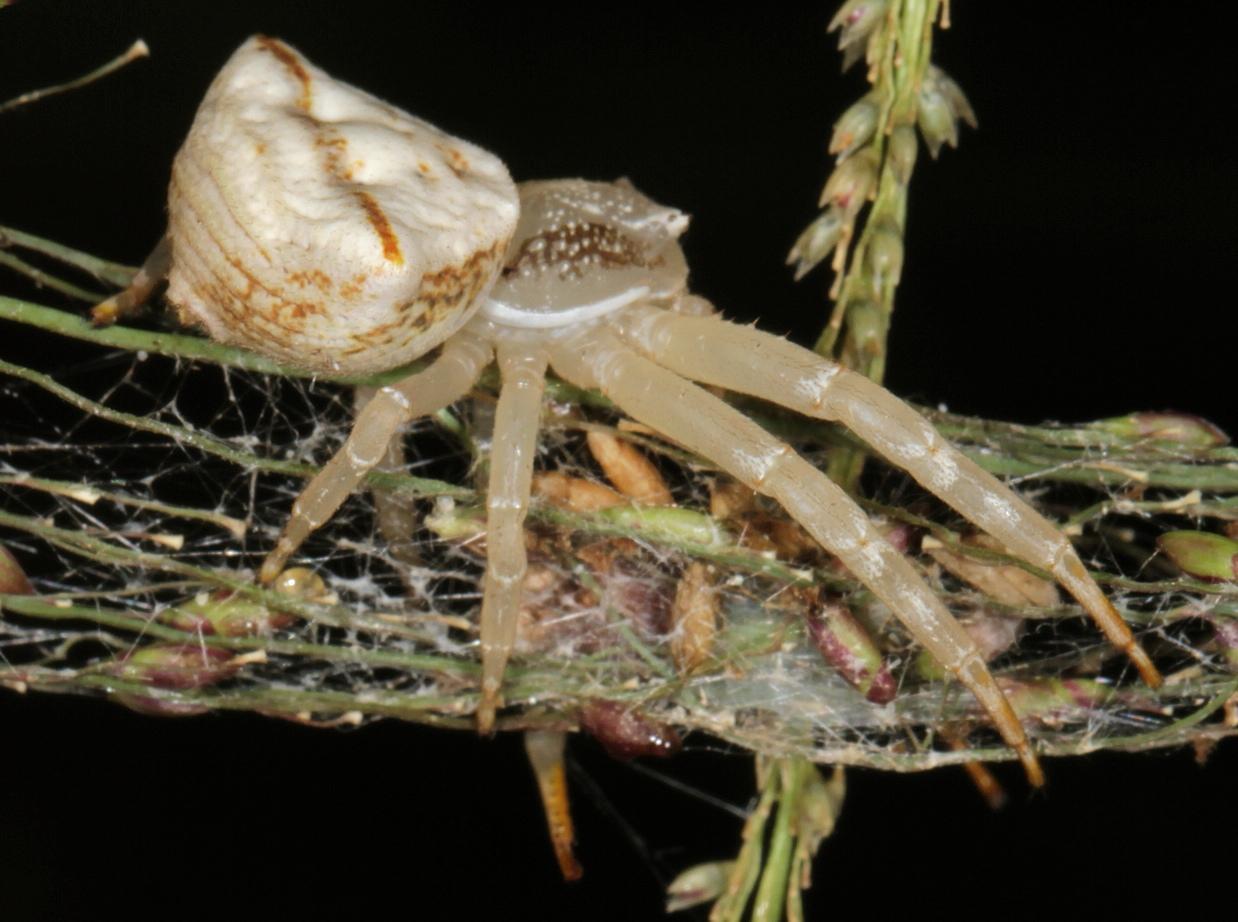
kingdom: Animalia
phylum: Arthropoda
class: Arachnida
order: Araneae
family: Thomisidae
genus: Thomisus
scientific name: Thomisus blandus
